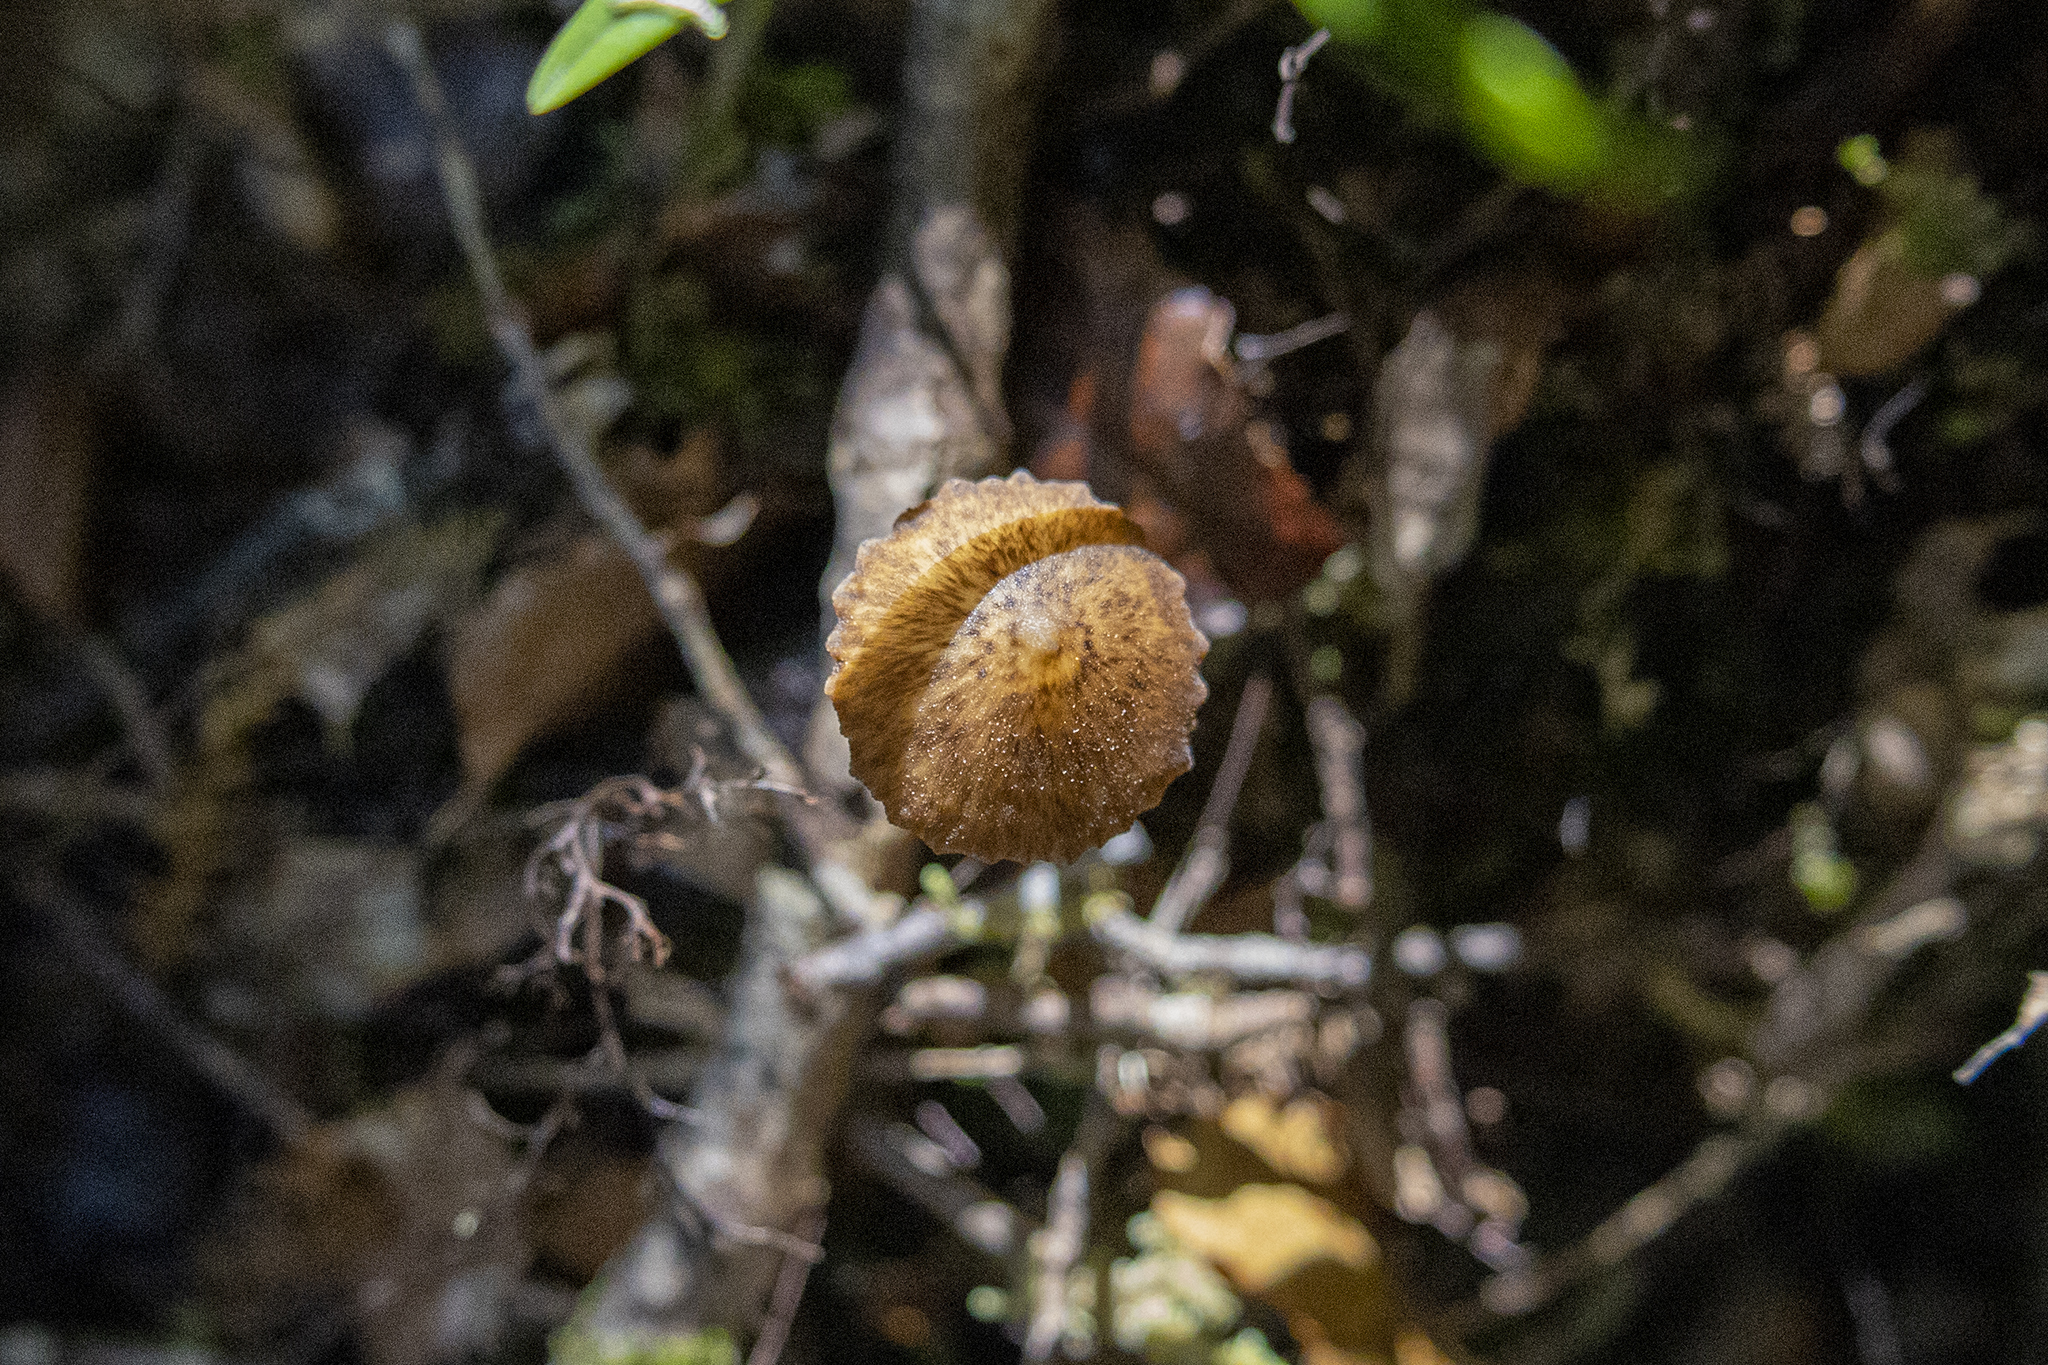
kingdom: Fungi
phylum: Basidiomycota
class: Agaricomycetes
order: Agaricales
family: Porotheleaceae
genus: Pseudohydropus
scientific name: Pseudohydropus parafunebris
